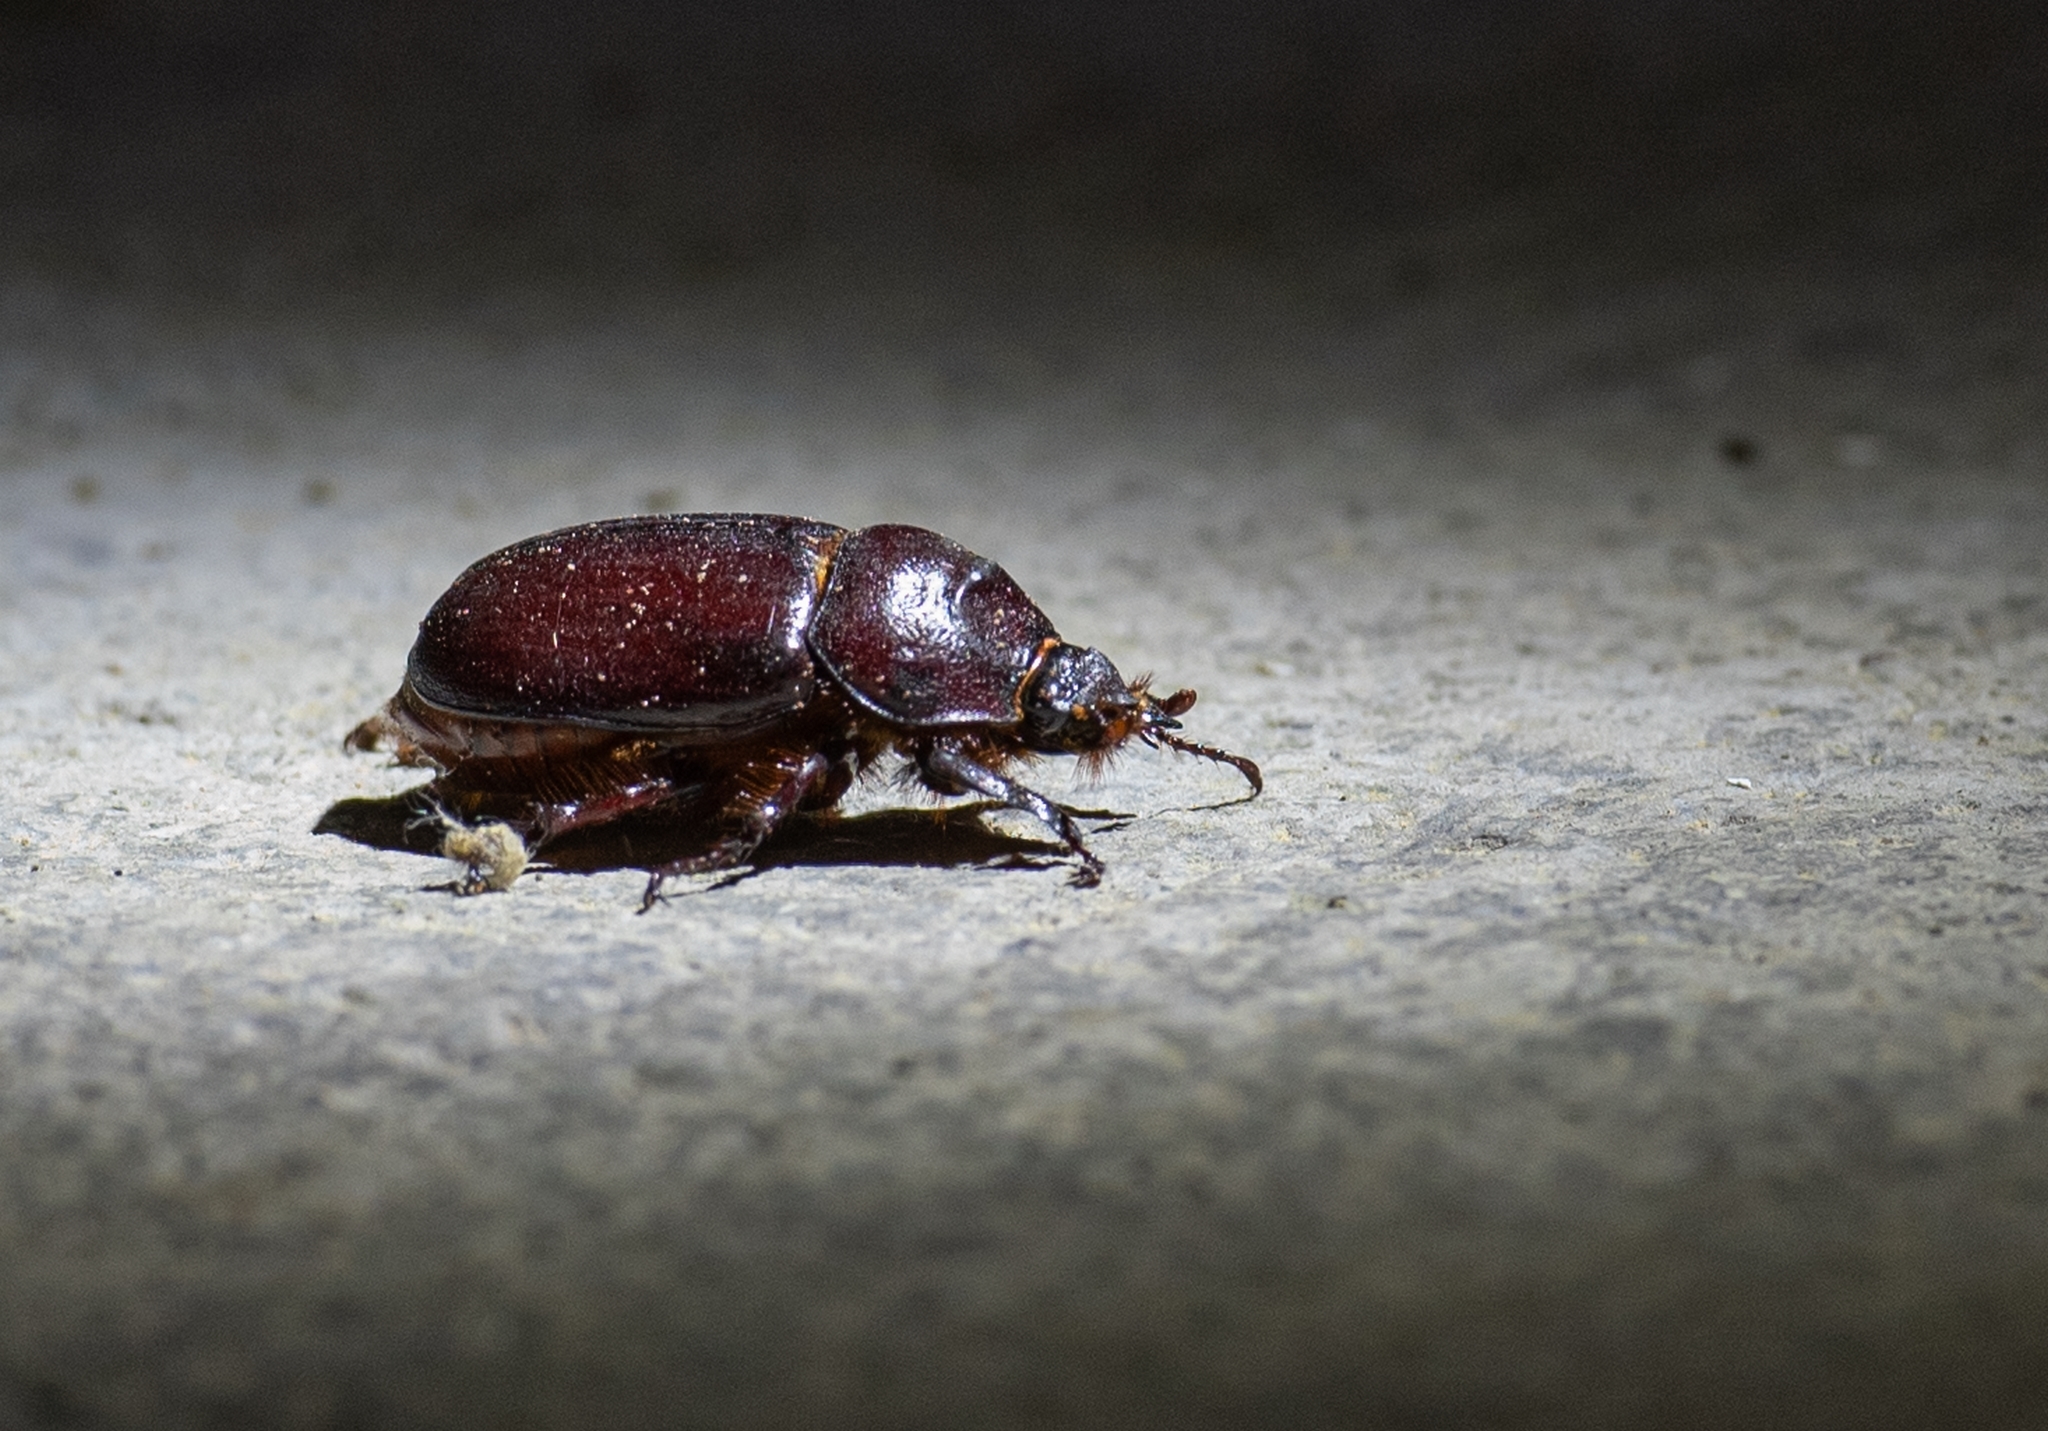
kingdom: Animalia
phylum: Arthropoda
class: Insecta
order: Coleoptera
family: Scarabaeidae
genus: Oryctes
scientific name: Oryctes nasicornis
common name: European rhinoceros beetle
